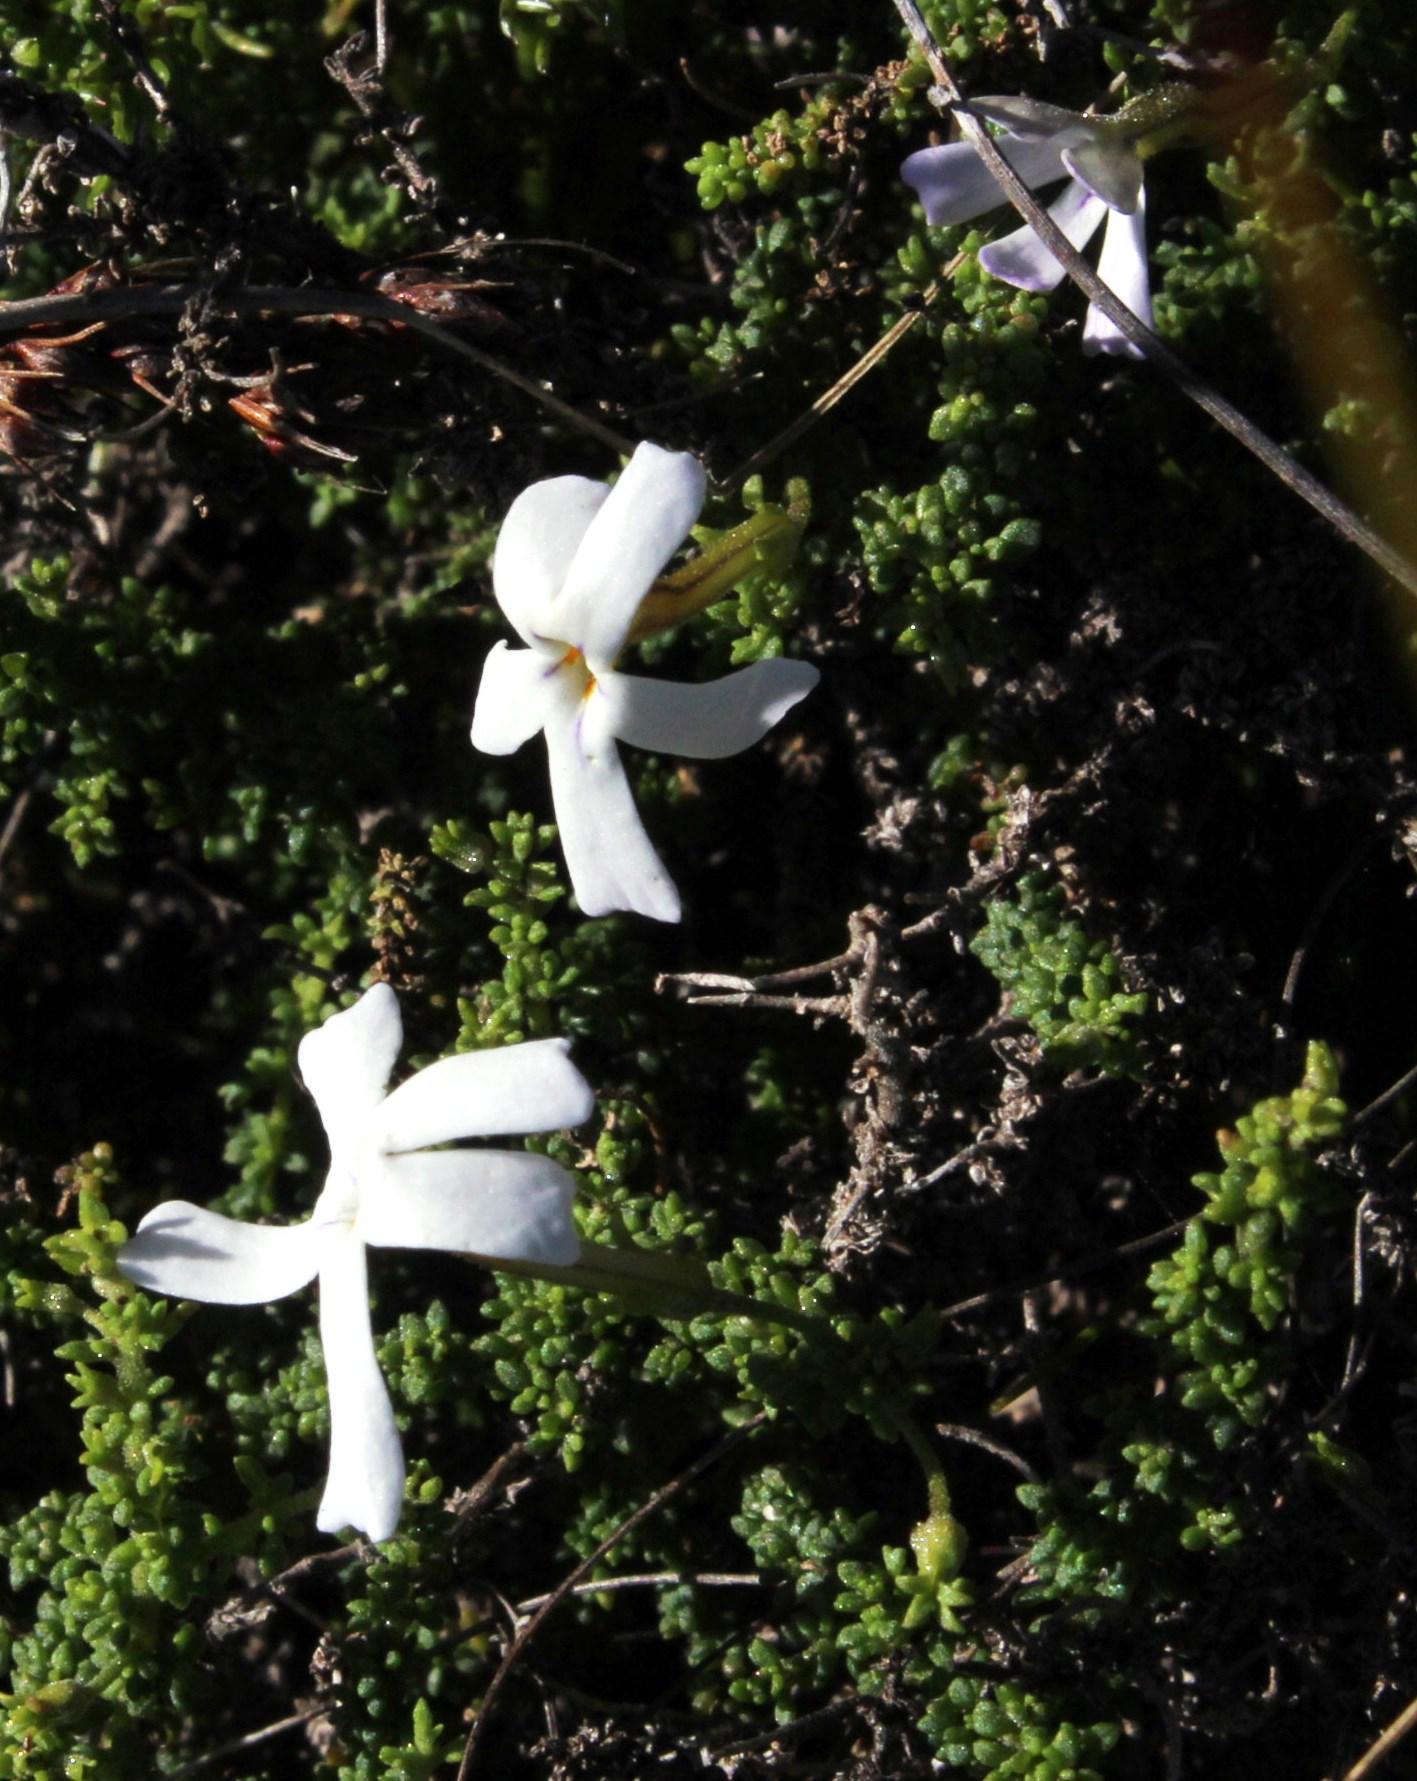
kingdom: Plantae
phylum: Tracheophyta
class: Magnoliopsida
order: Lamiales
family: Scrophulariaceae
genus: Jamesbrittenia
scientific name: Jamesbrittenia calciphila
